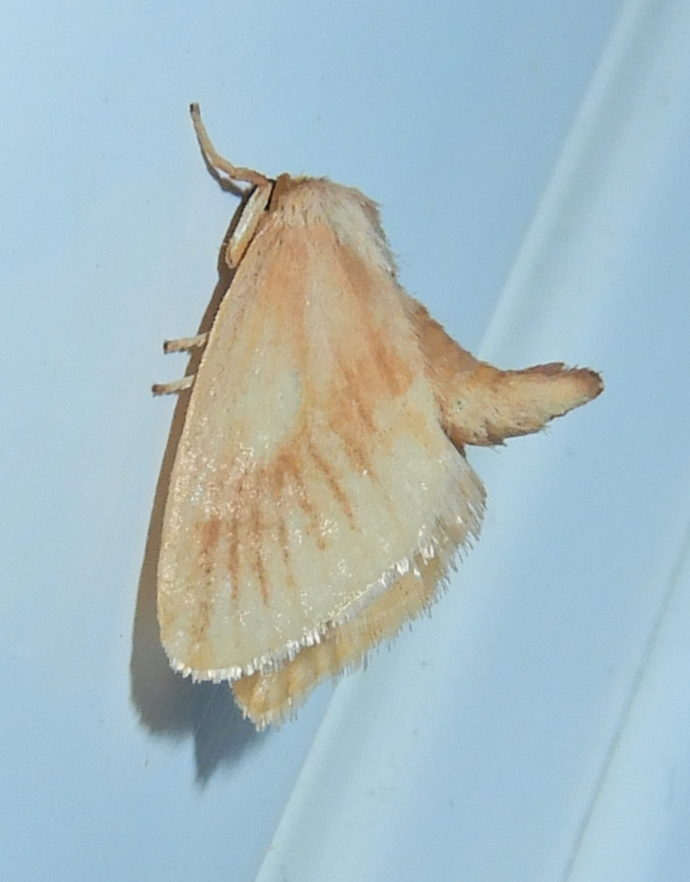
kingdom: Animalia
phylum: Arthropoda
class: Insecta
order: Lepidoptera
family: Limacodidae
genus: Tortricidia
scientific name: Tortricidia testacea
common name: Early button slug moth
